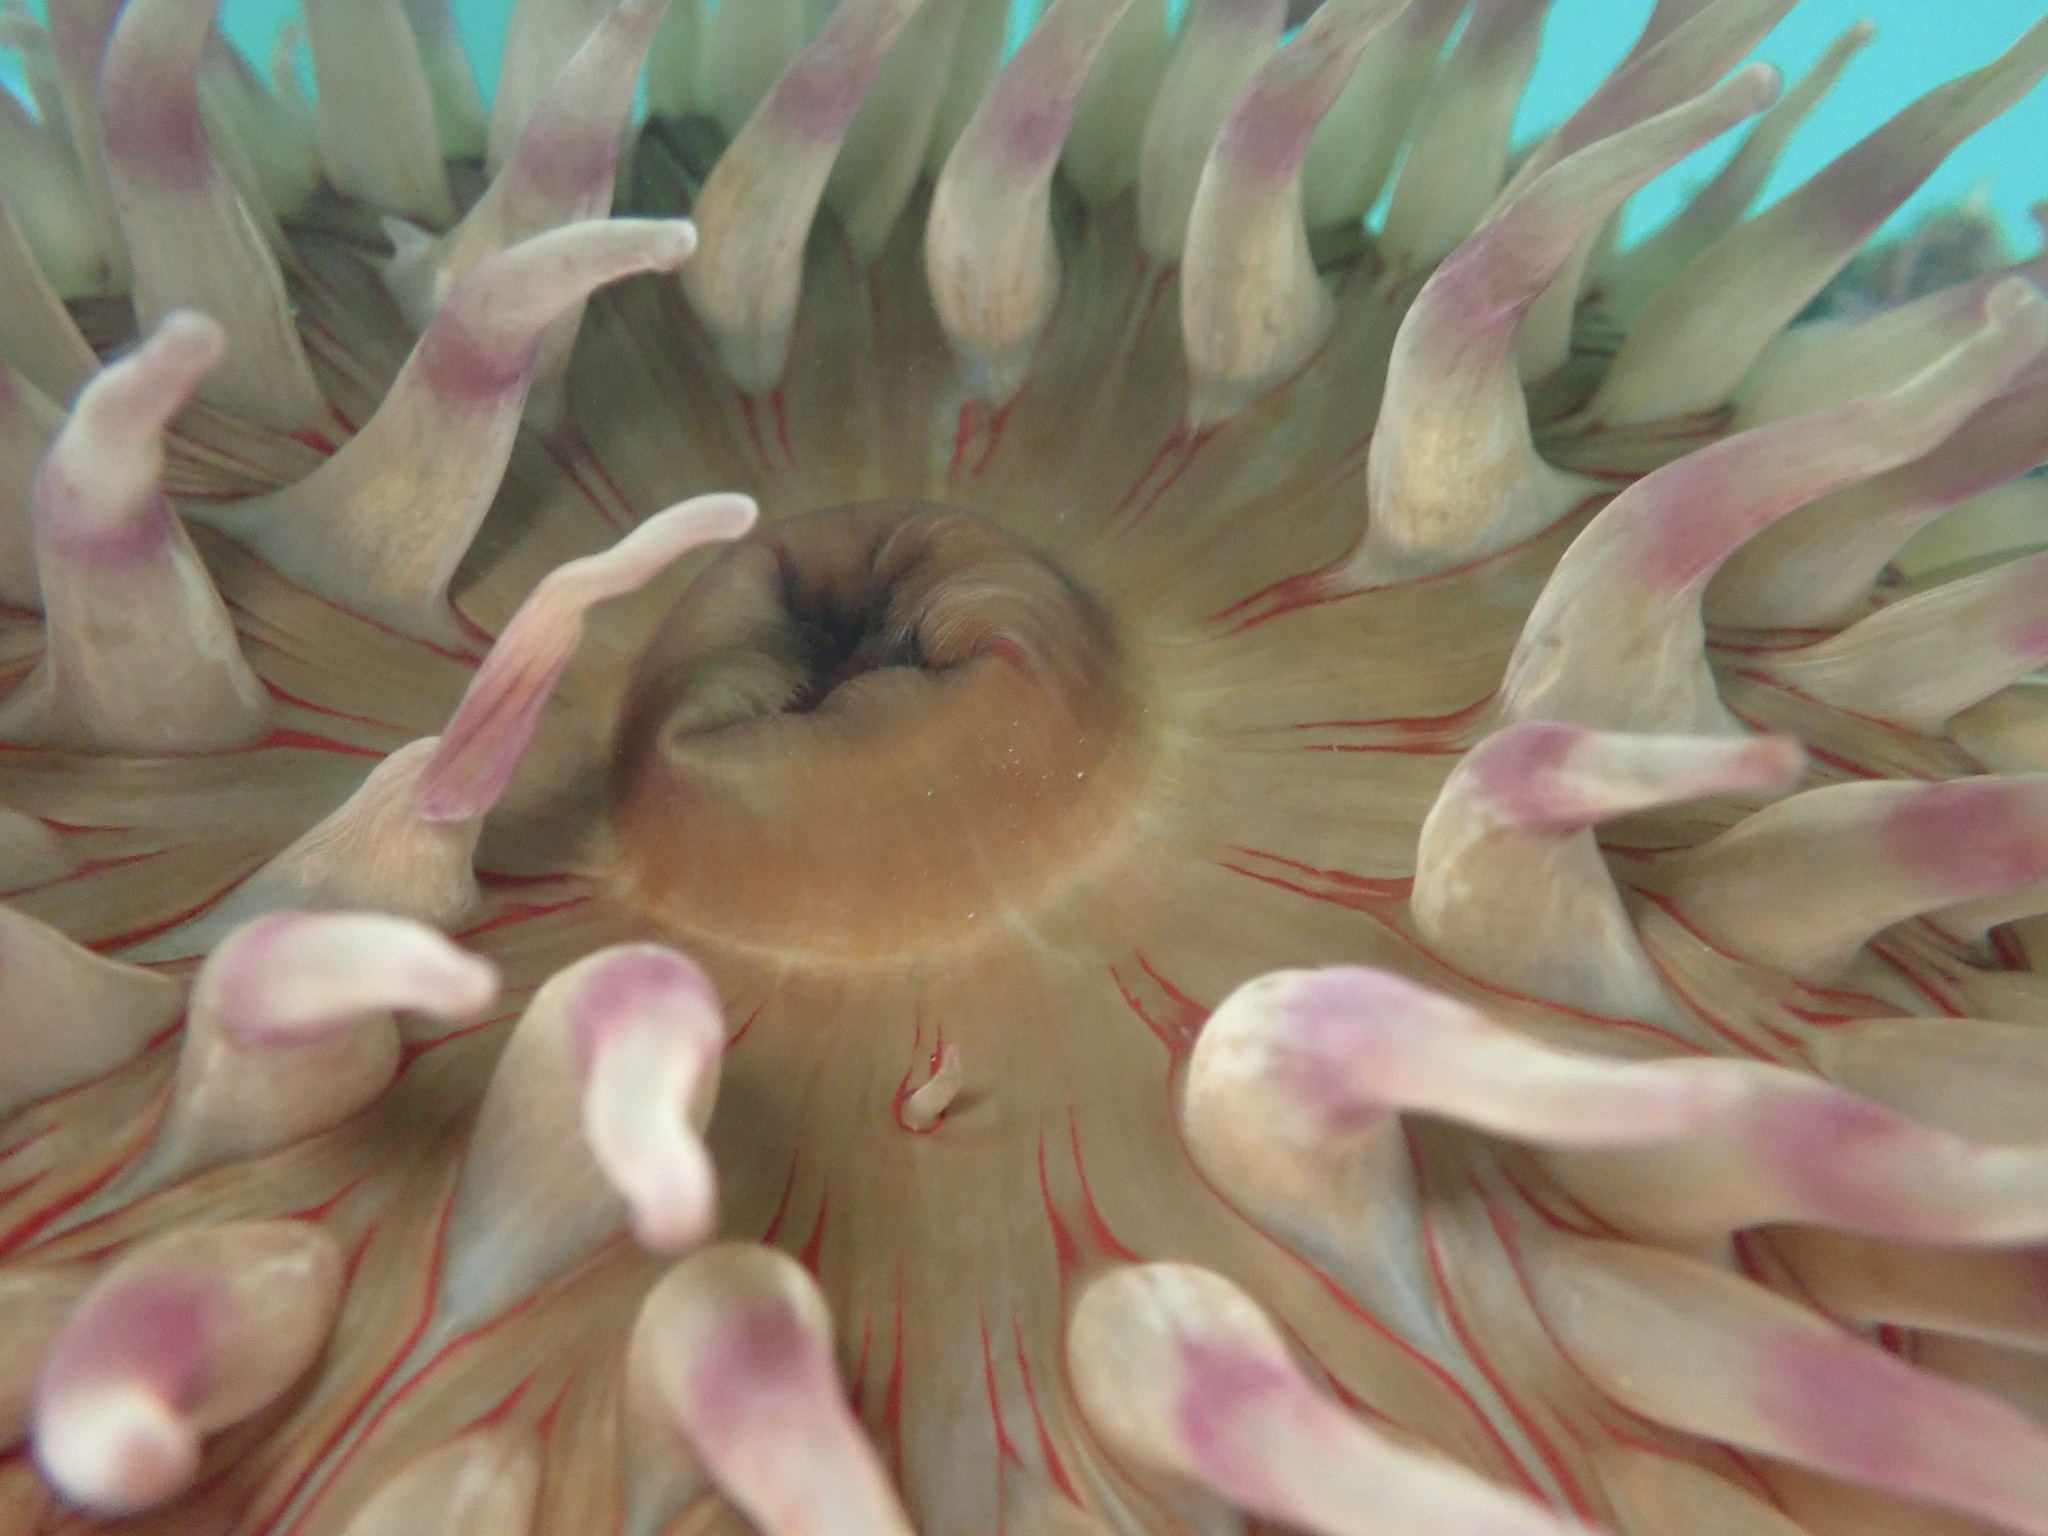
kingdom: Animalia
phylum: Cnidaria
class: Anthozoa
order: Actiniaria
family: Actiniidae
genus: Urticina
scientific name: Urticina grebelnyi
